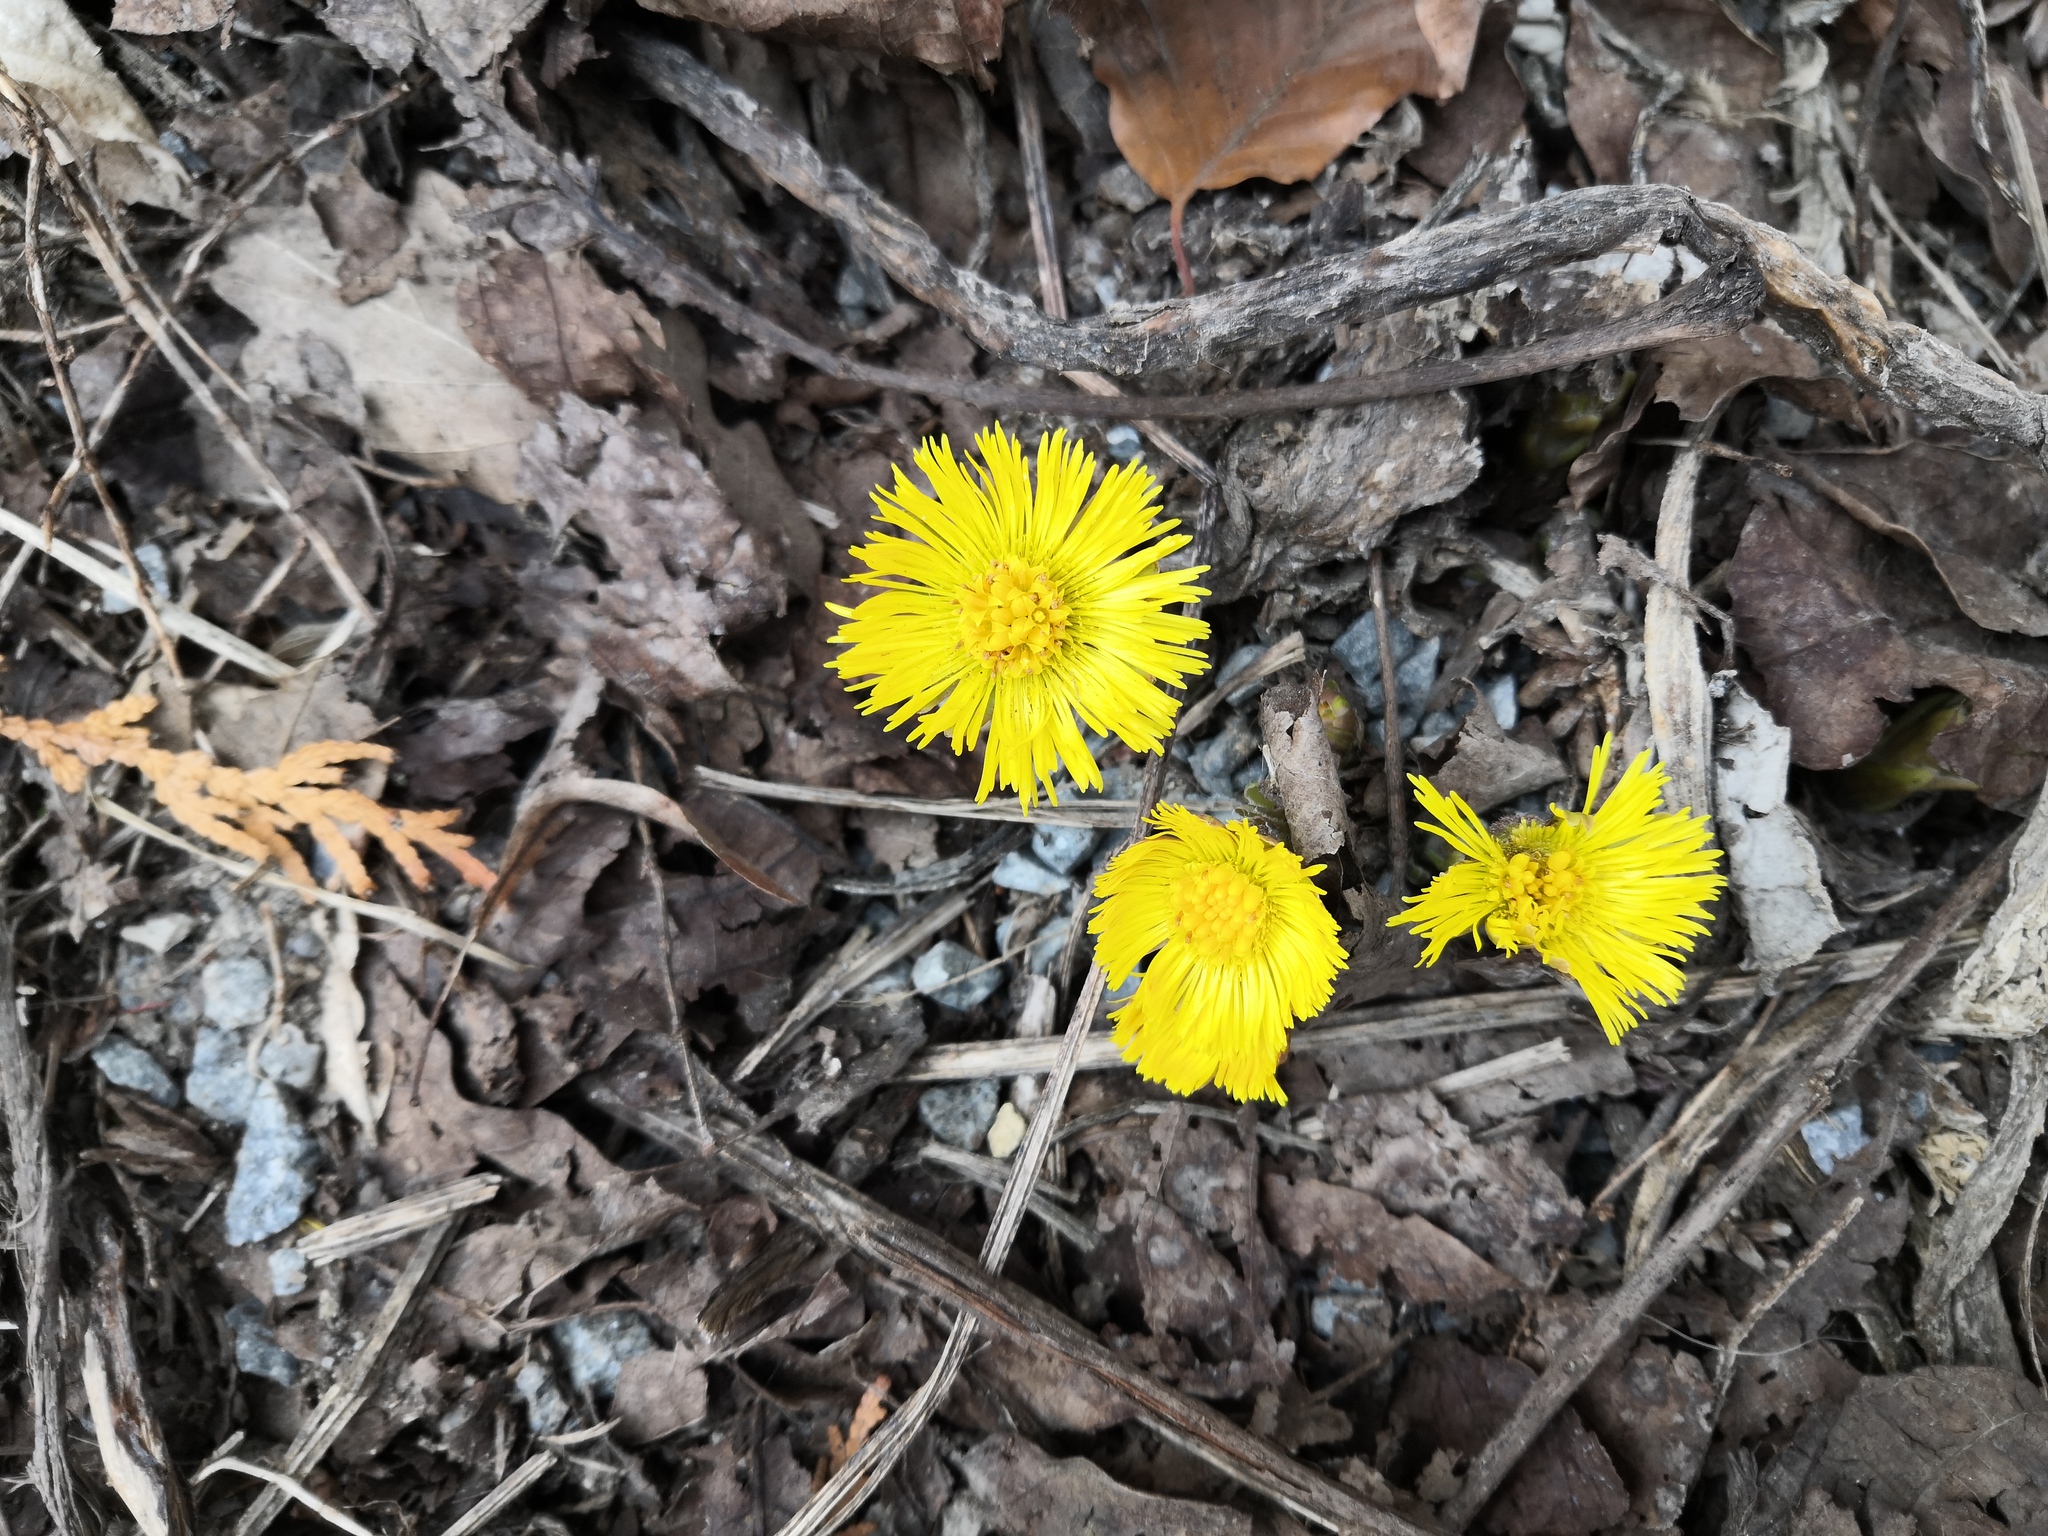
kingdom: Plantae
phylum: Tracheophyta
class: Magnoliopsida
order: Asterales
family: Asteraceae
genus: Tussilago
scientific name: Tussilago farfara
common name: Coltsfoot
